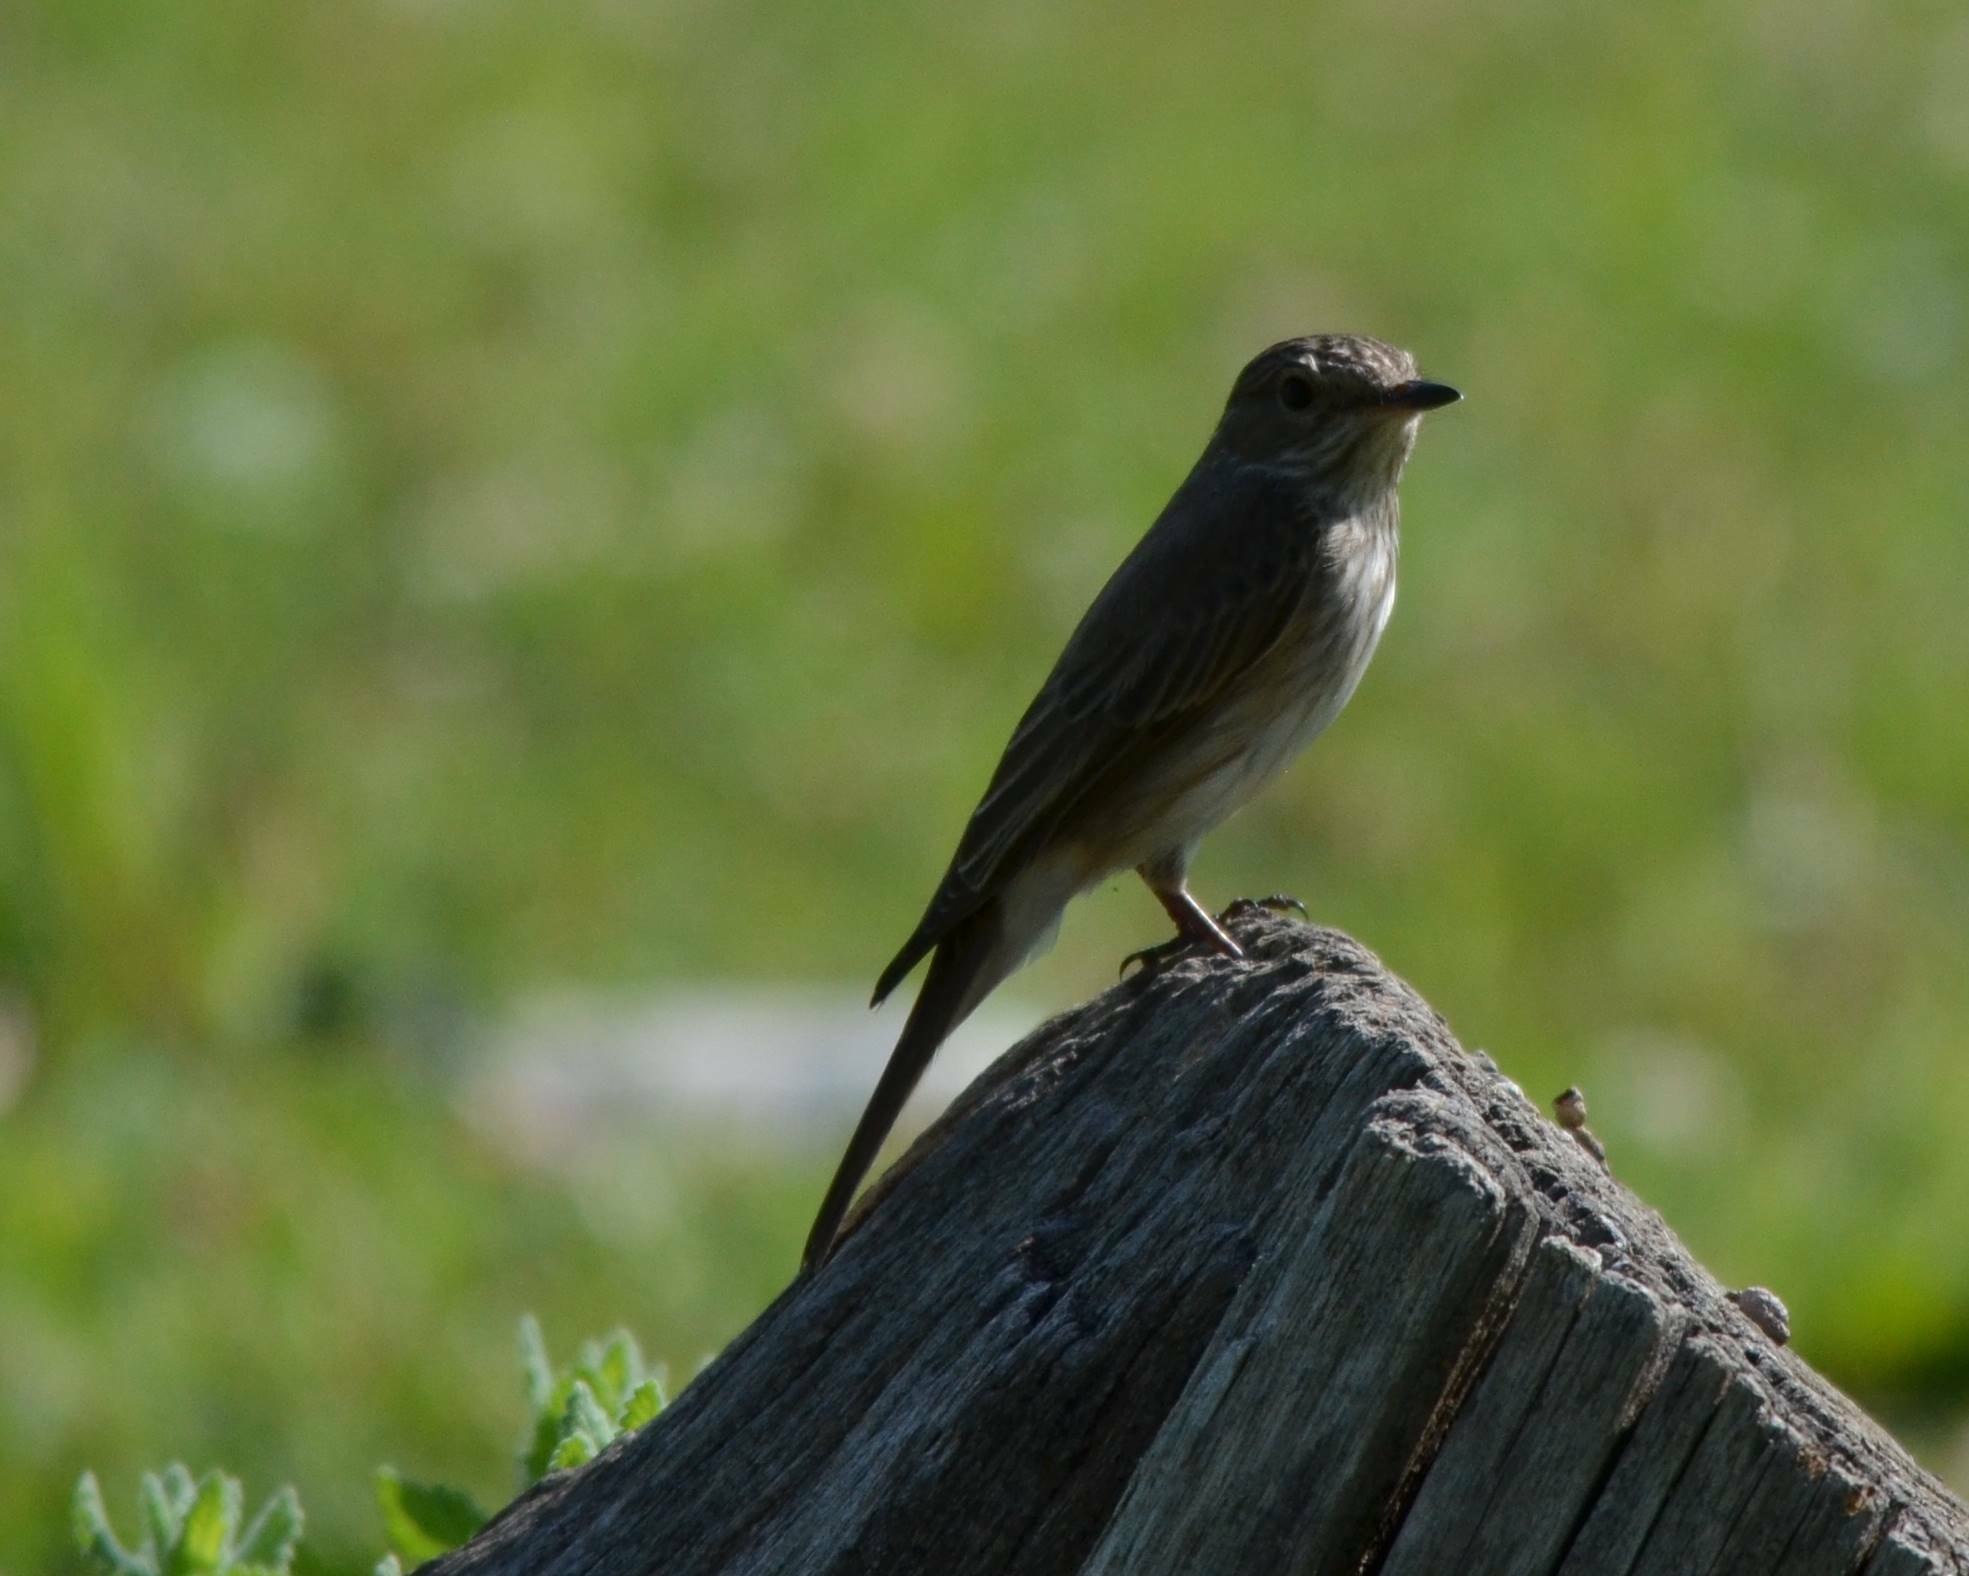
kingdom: Animalia
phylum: Chordata
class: Aves
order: Passeriformes
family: Muscicapidae
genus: Muscicapa
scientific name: Muscicapa striata
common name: Spotted flycatcher
